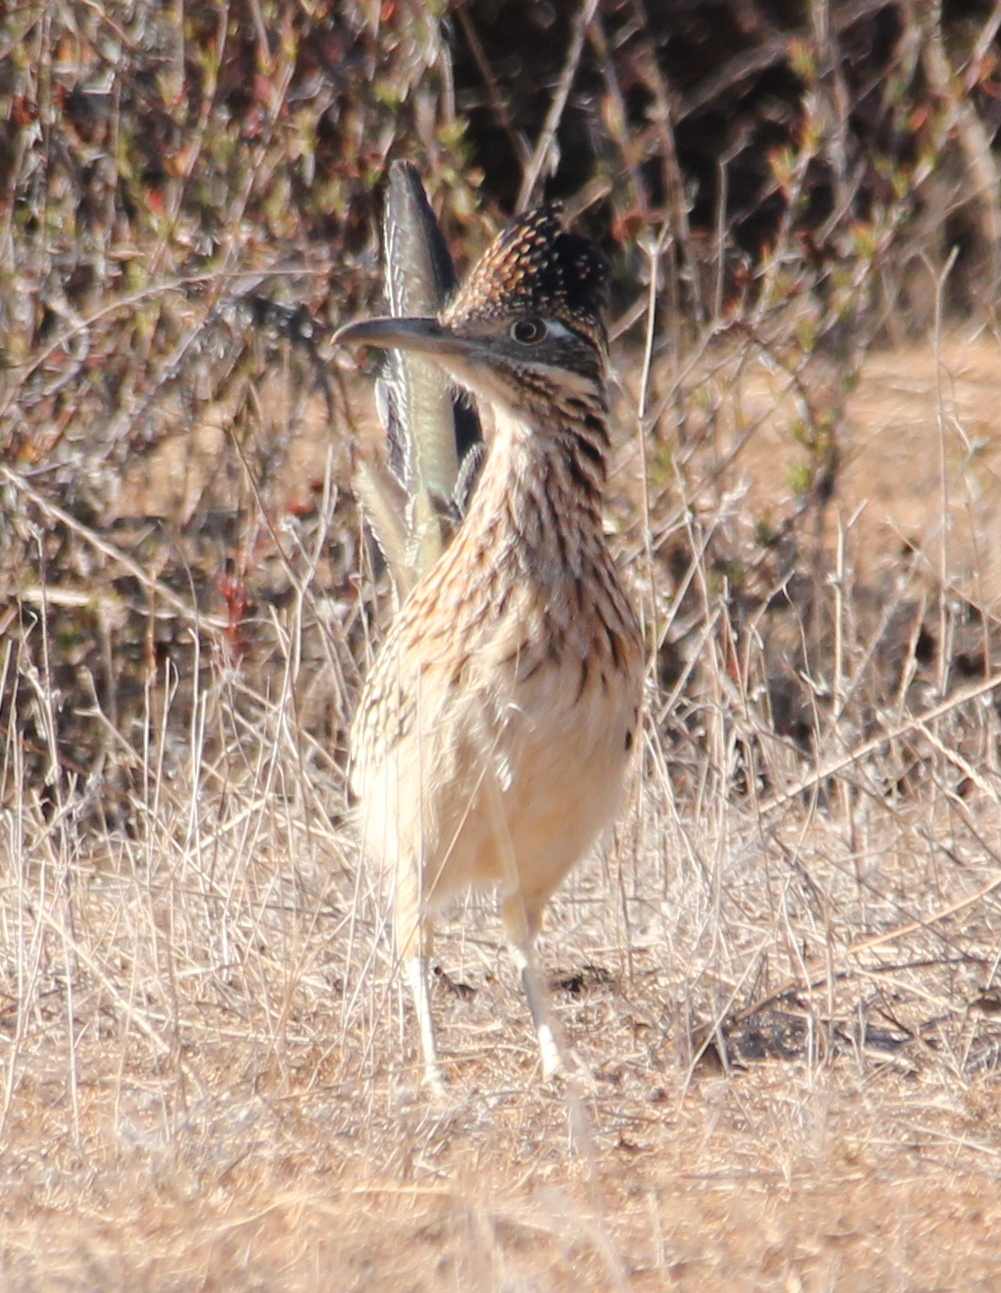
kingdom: Animalia
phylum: Chordata
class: Aves
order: Cuculiformes
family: Cuculidae
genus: Geococcyx
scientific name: Geococcyx californianus
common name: Greater roadrunner
